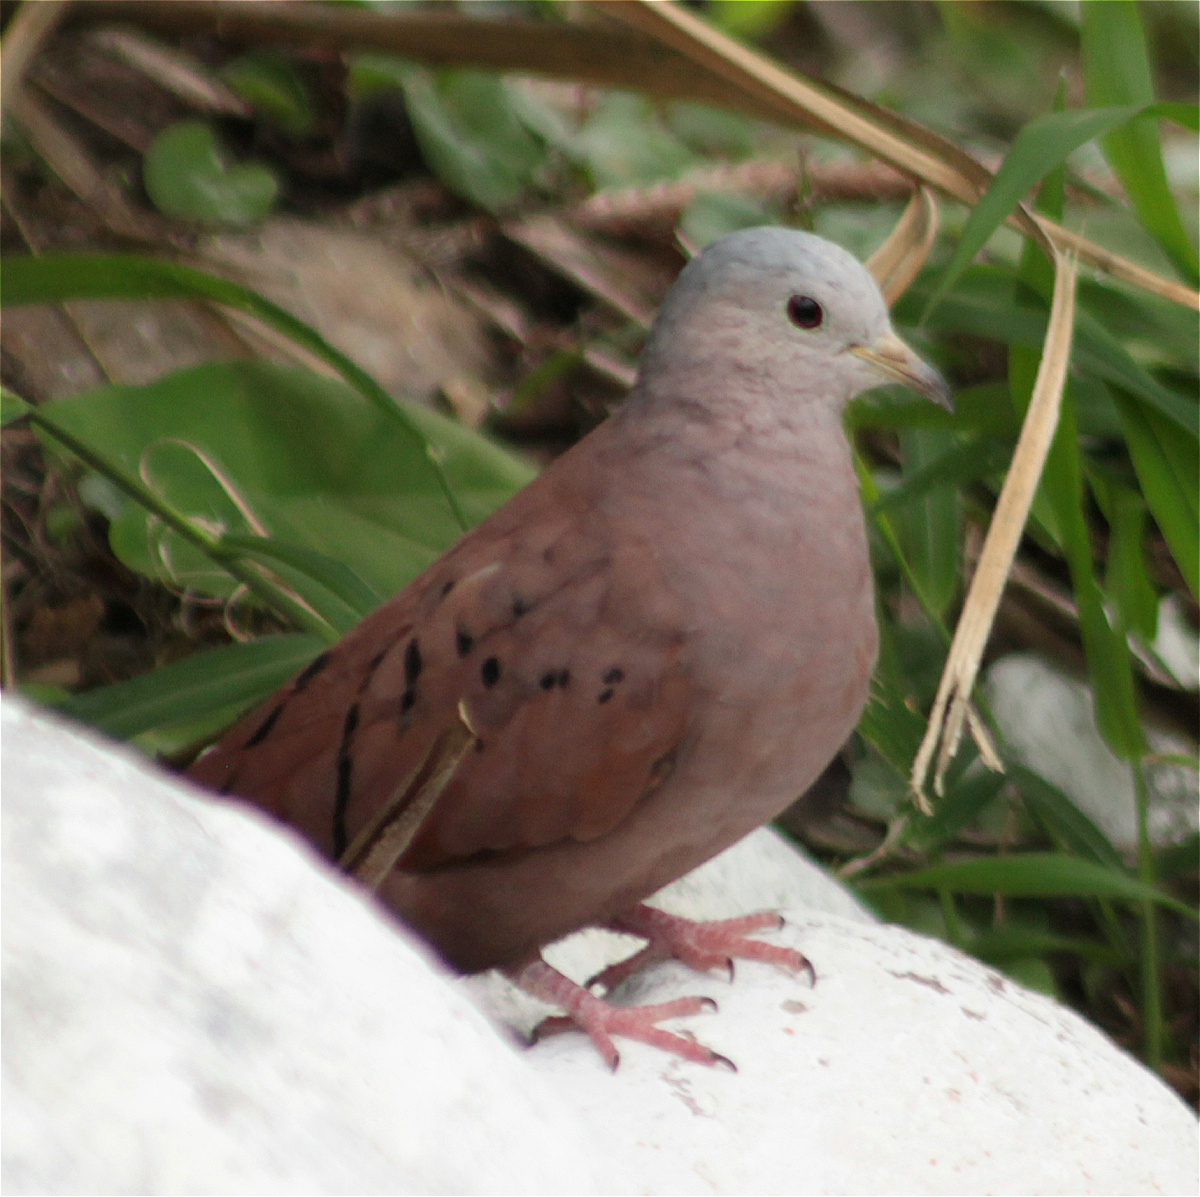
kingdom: Animalia
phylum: Chordata
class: Aves
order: Columbiformes
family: Columbidae
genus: Columbina
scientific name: Columbina talpacoti
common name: Ruddy ground dove
